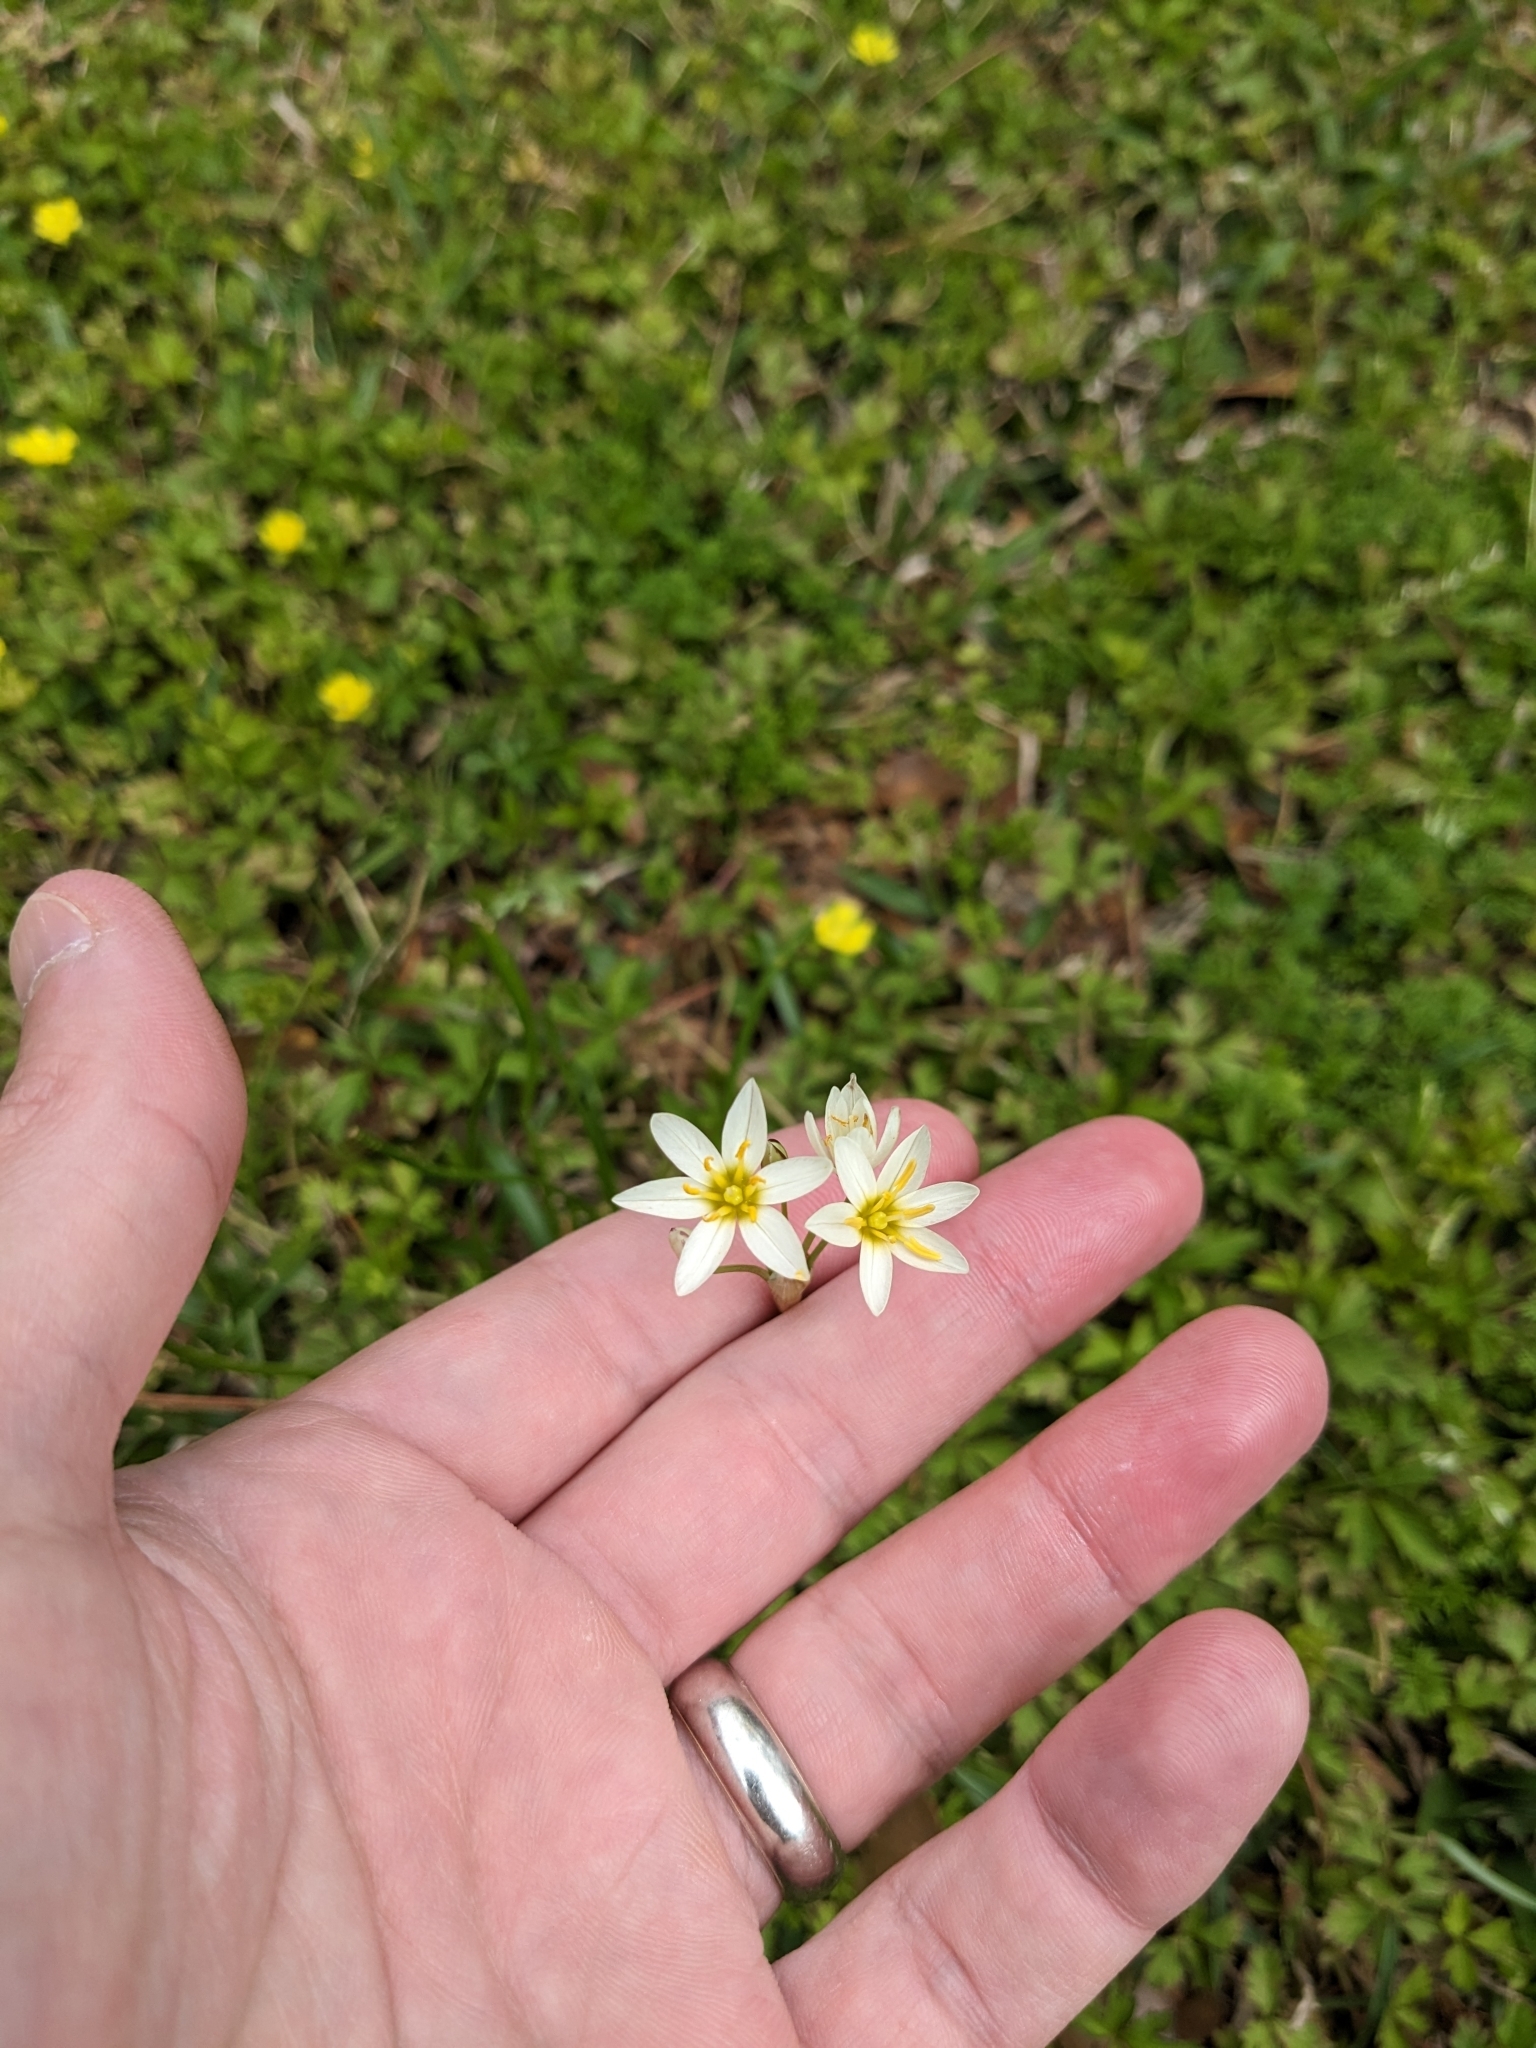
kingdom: Plantae
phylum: Tracheophyta
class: Liliopsida
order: Asparagales
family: Amaryllidaceae
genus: Nothoscordum
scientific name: Nothoscordum bivalve
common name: Crow-poison
